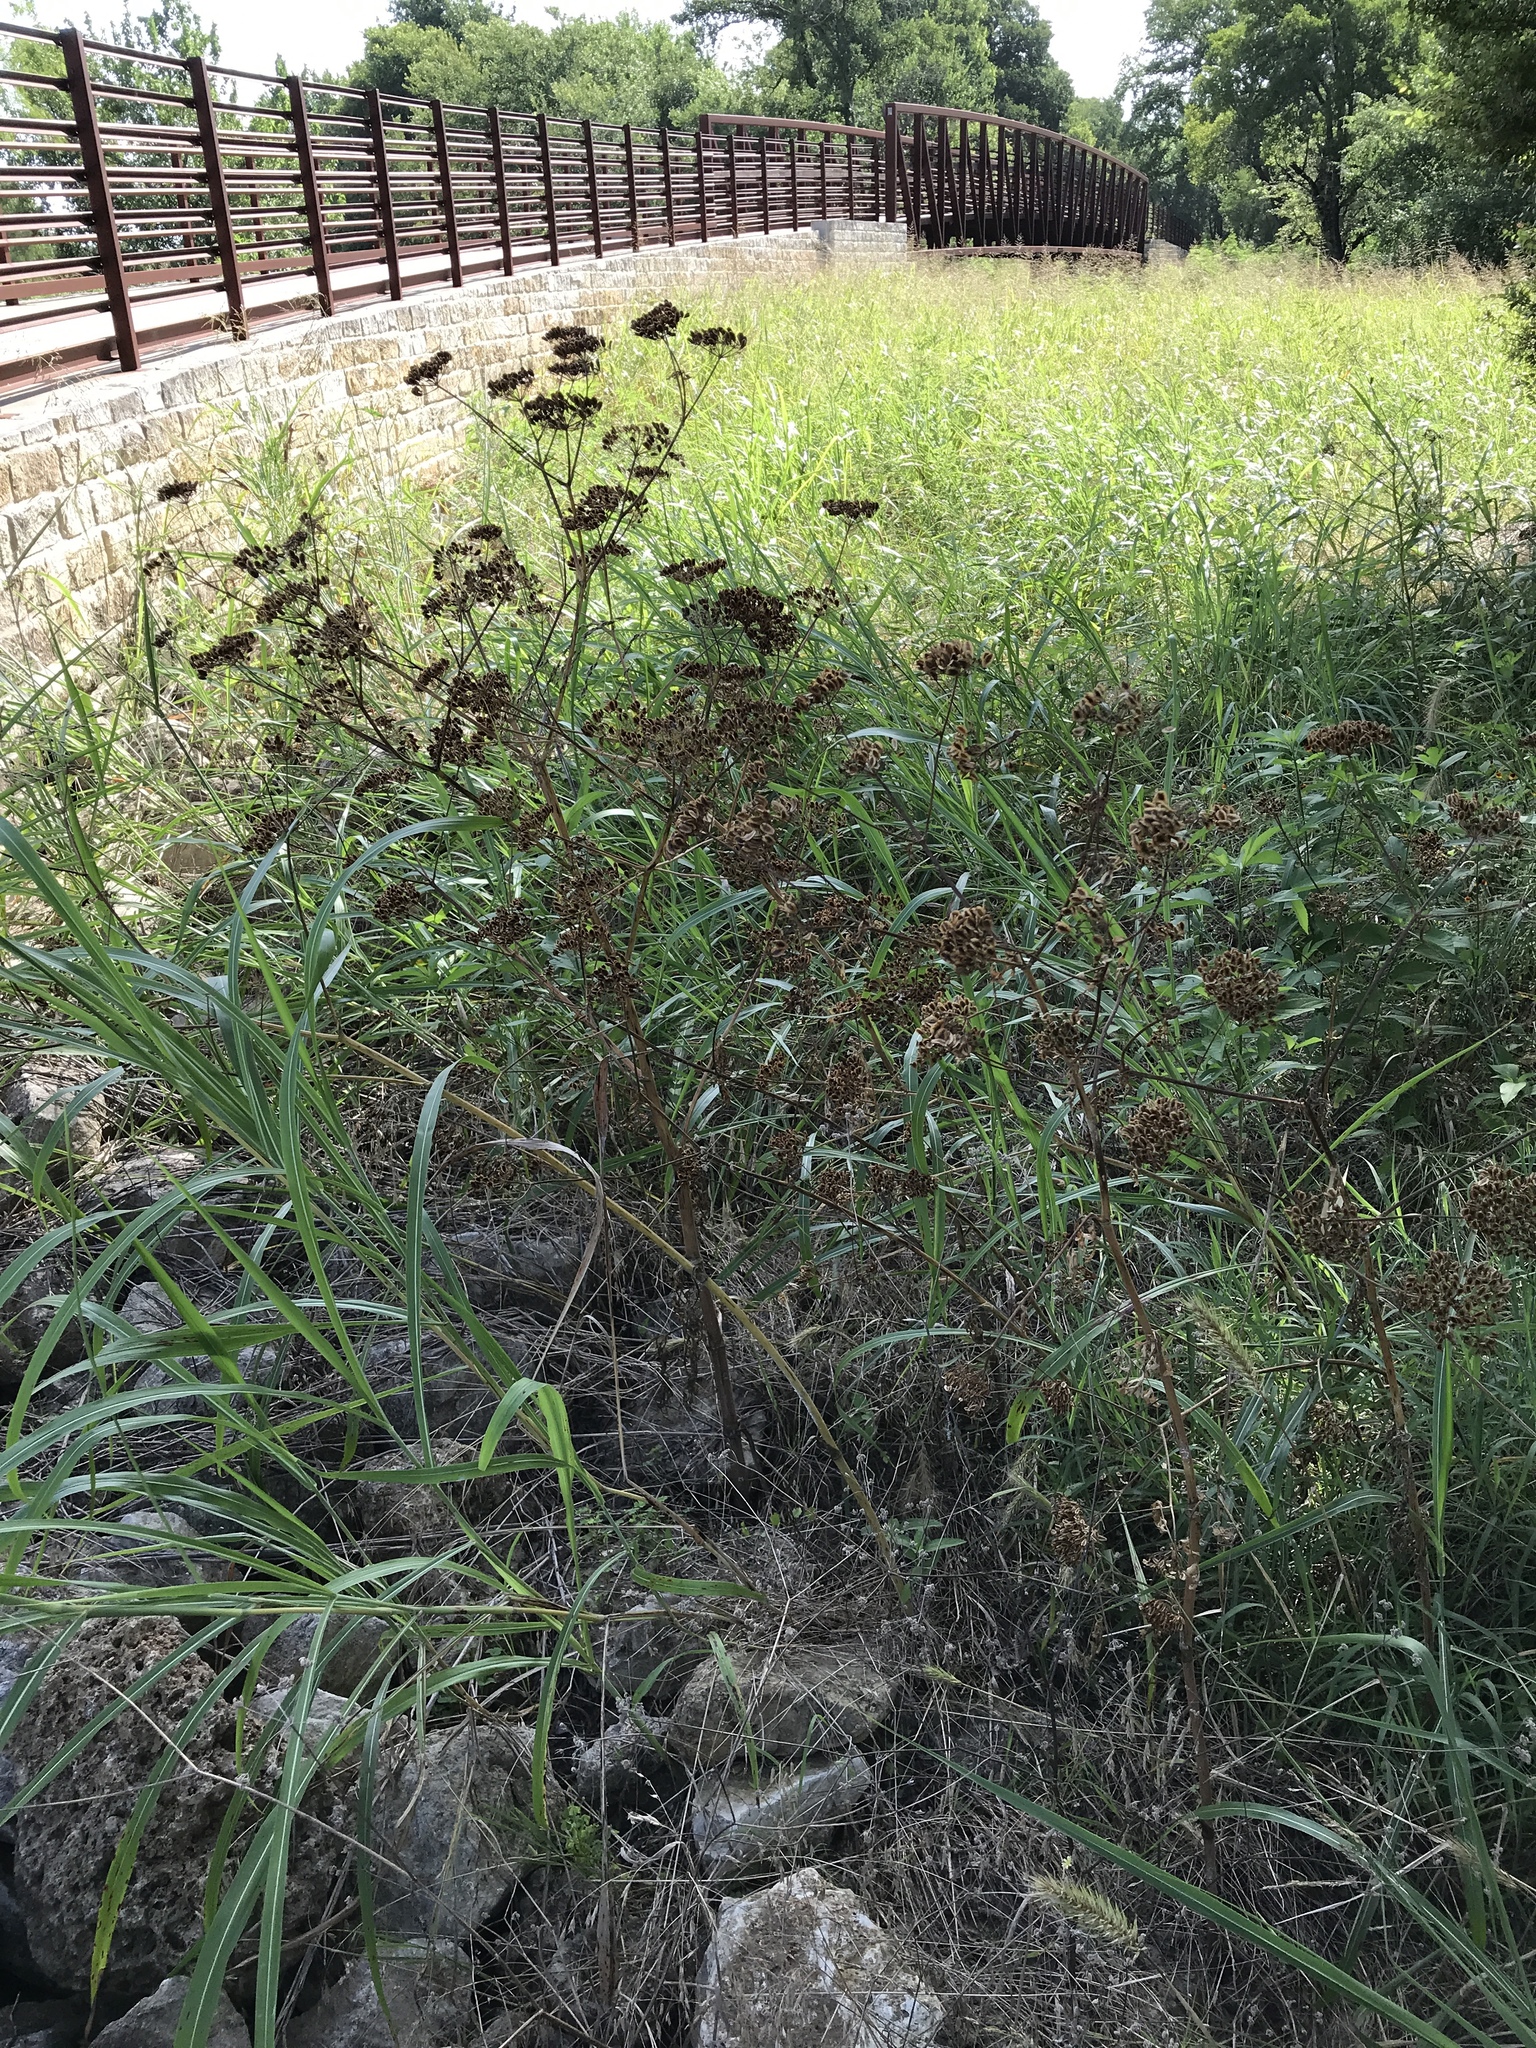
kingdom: Plantae
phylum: Tracheophyta
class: Magnoliopsida
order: Apiales
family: Apiaceae
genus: Polytaenia
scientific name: Polytaenia texana
